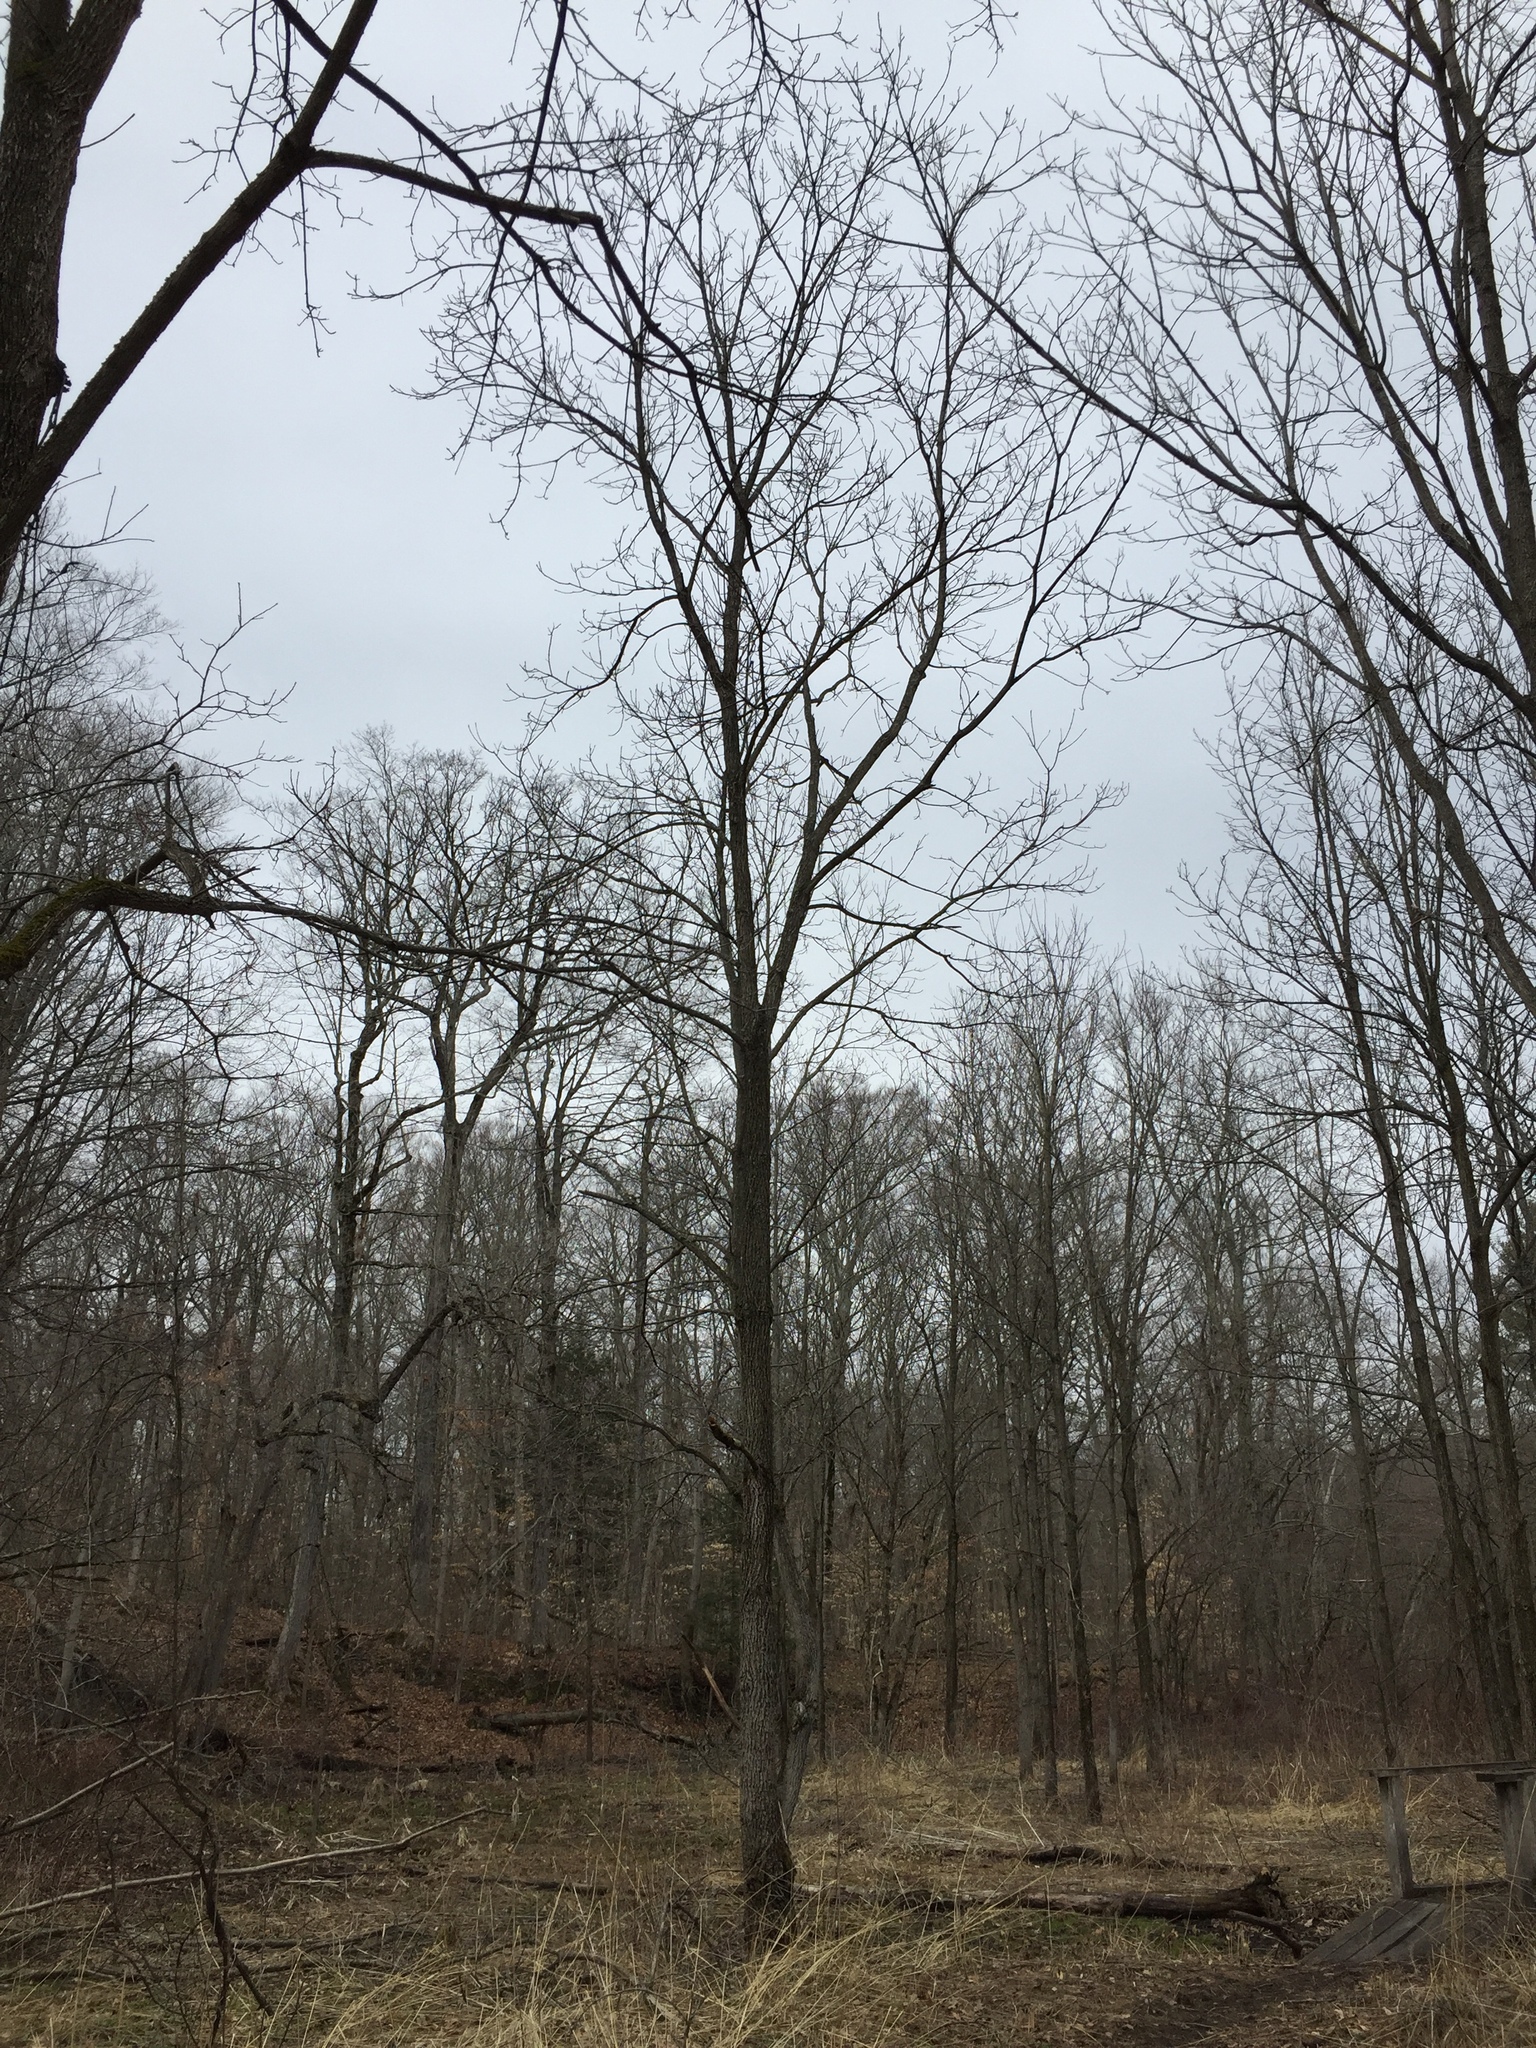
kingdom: Plantae
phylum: Tracheophyta
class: Magnoliopsida
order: Fagales
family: Juglandaceae
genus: Juglans
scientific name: Juglans nigra
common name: Black walnut
